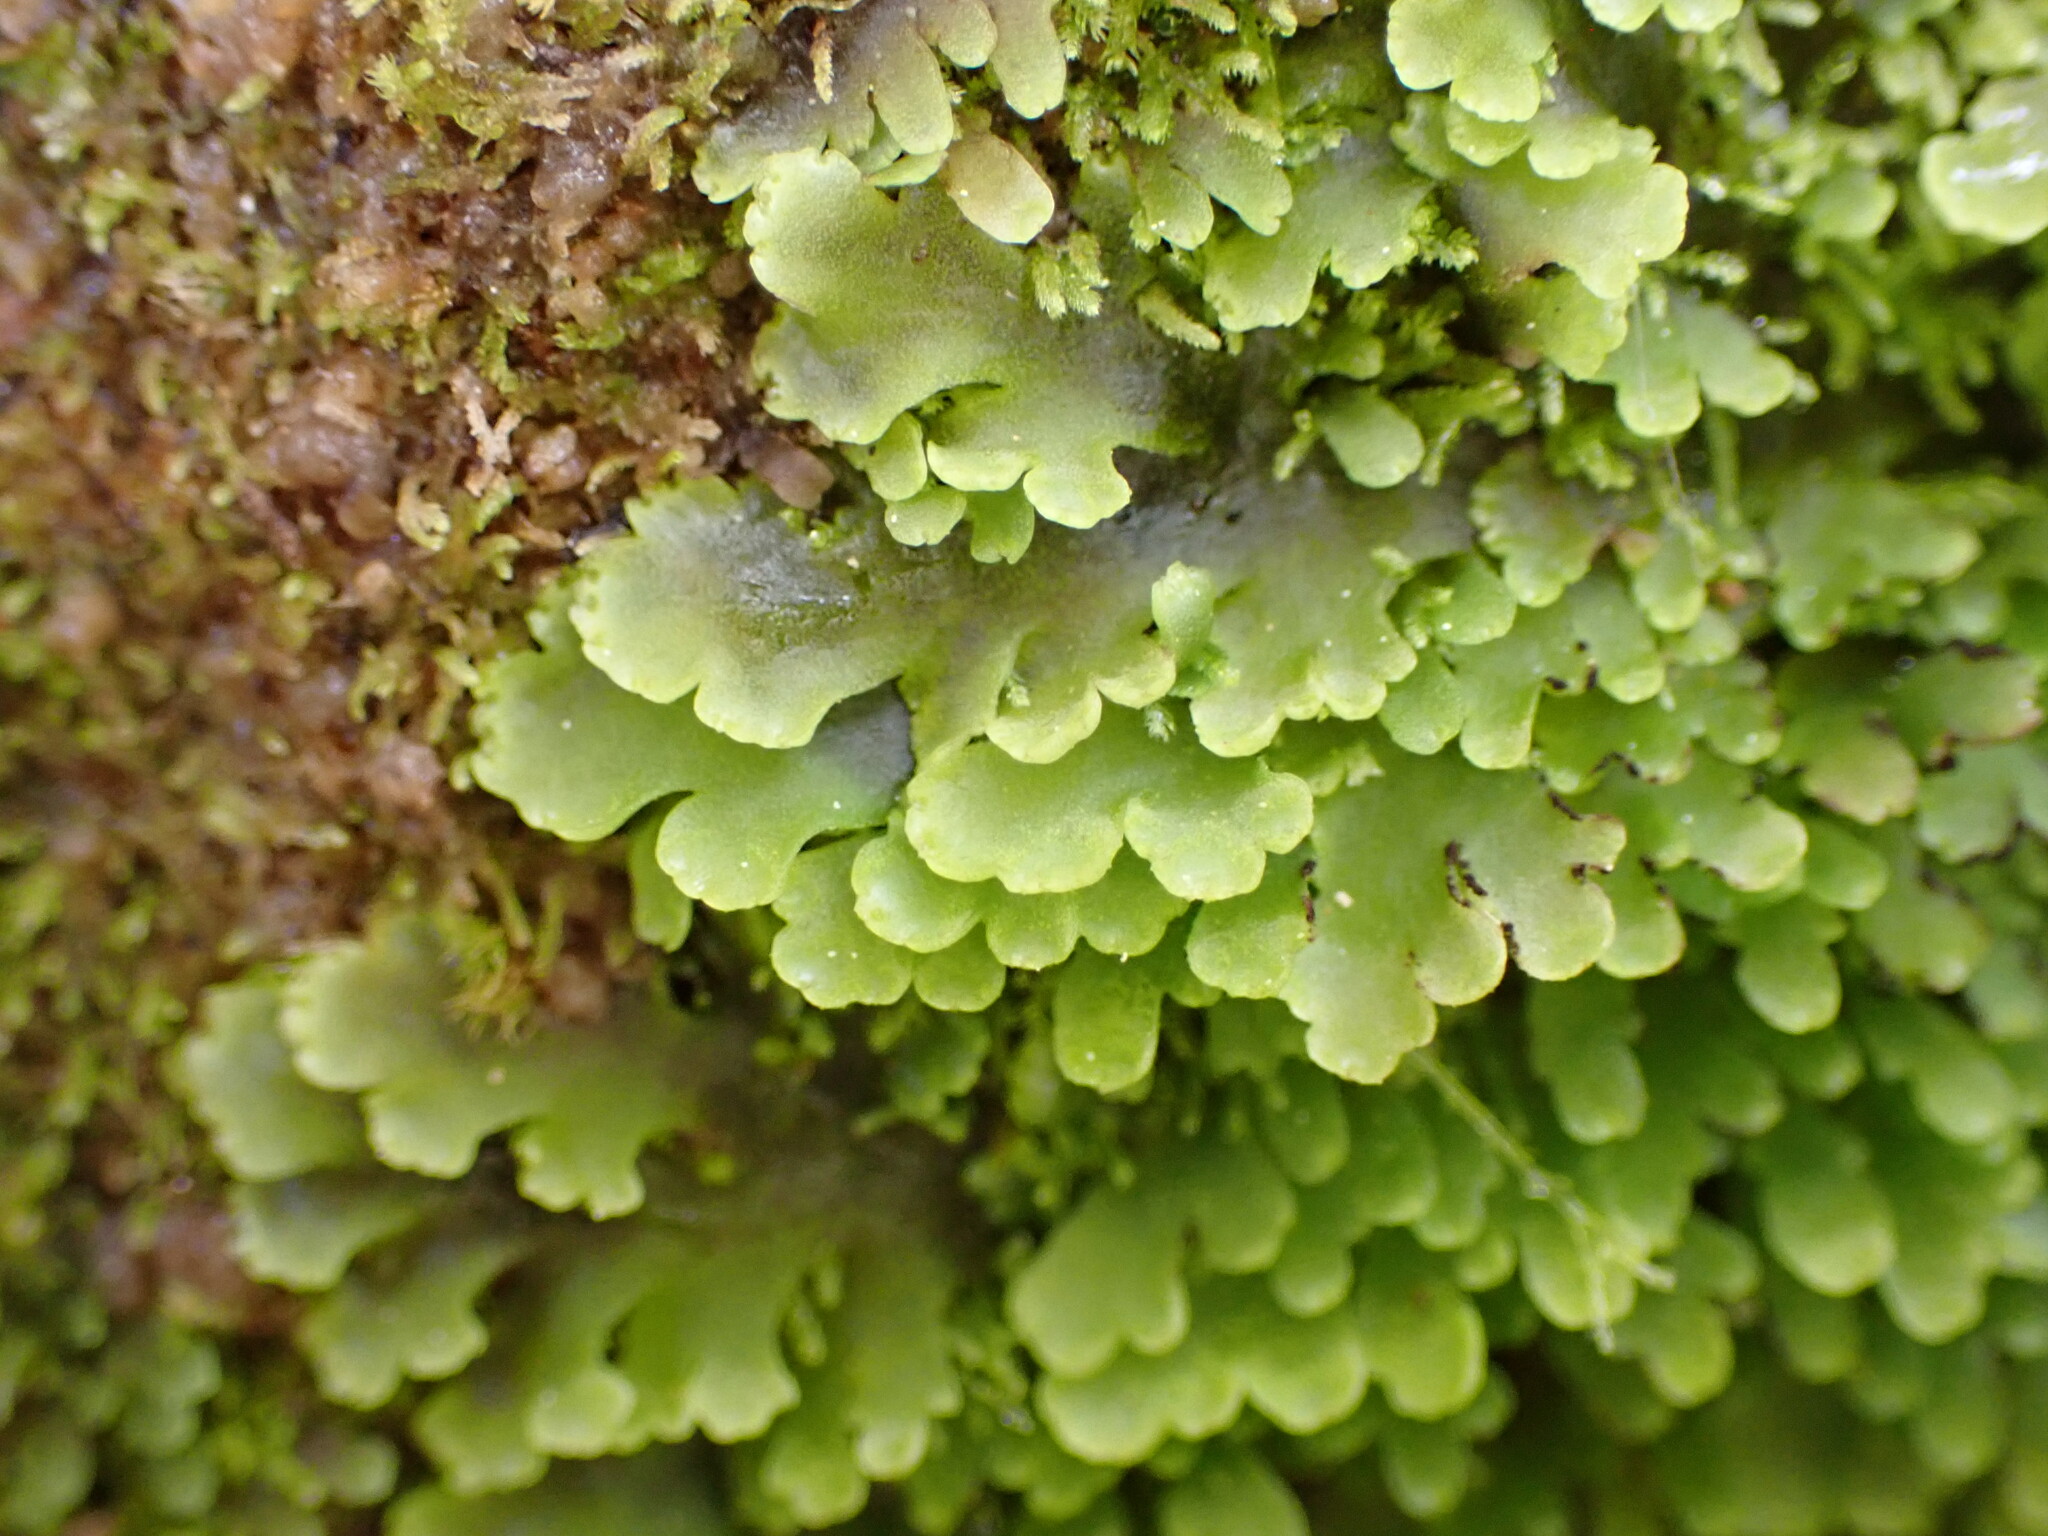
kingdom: Plantae
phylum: Marchantiophyta
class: Jungermanniopsida
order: Metzgeriales
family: Aneuraceae
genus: Riccardia
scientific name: Riccardia crassa
